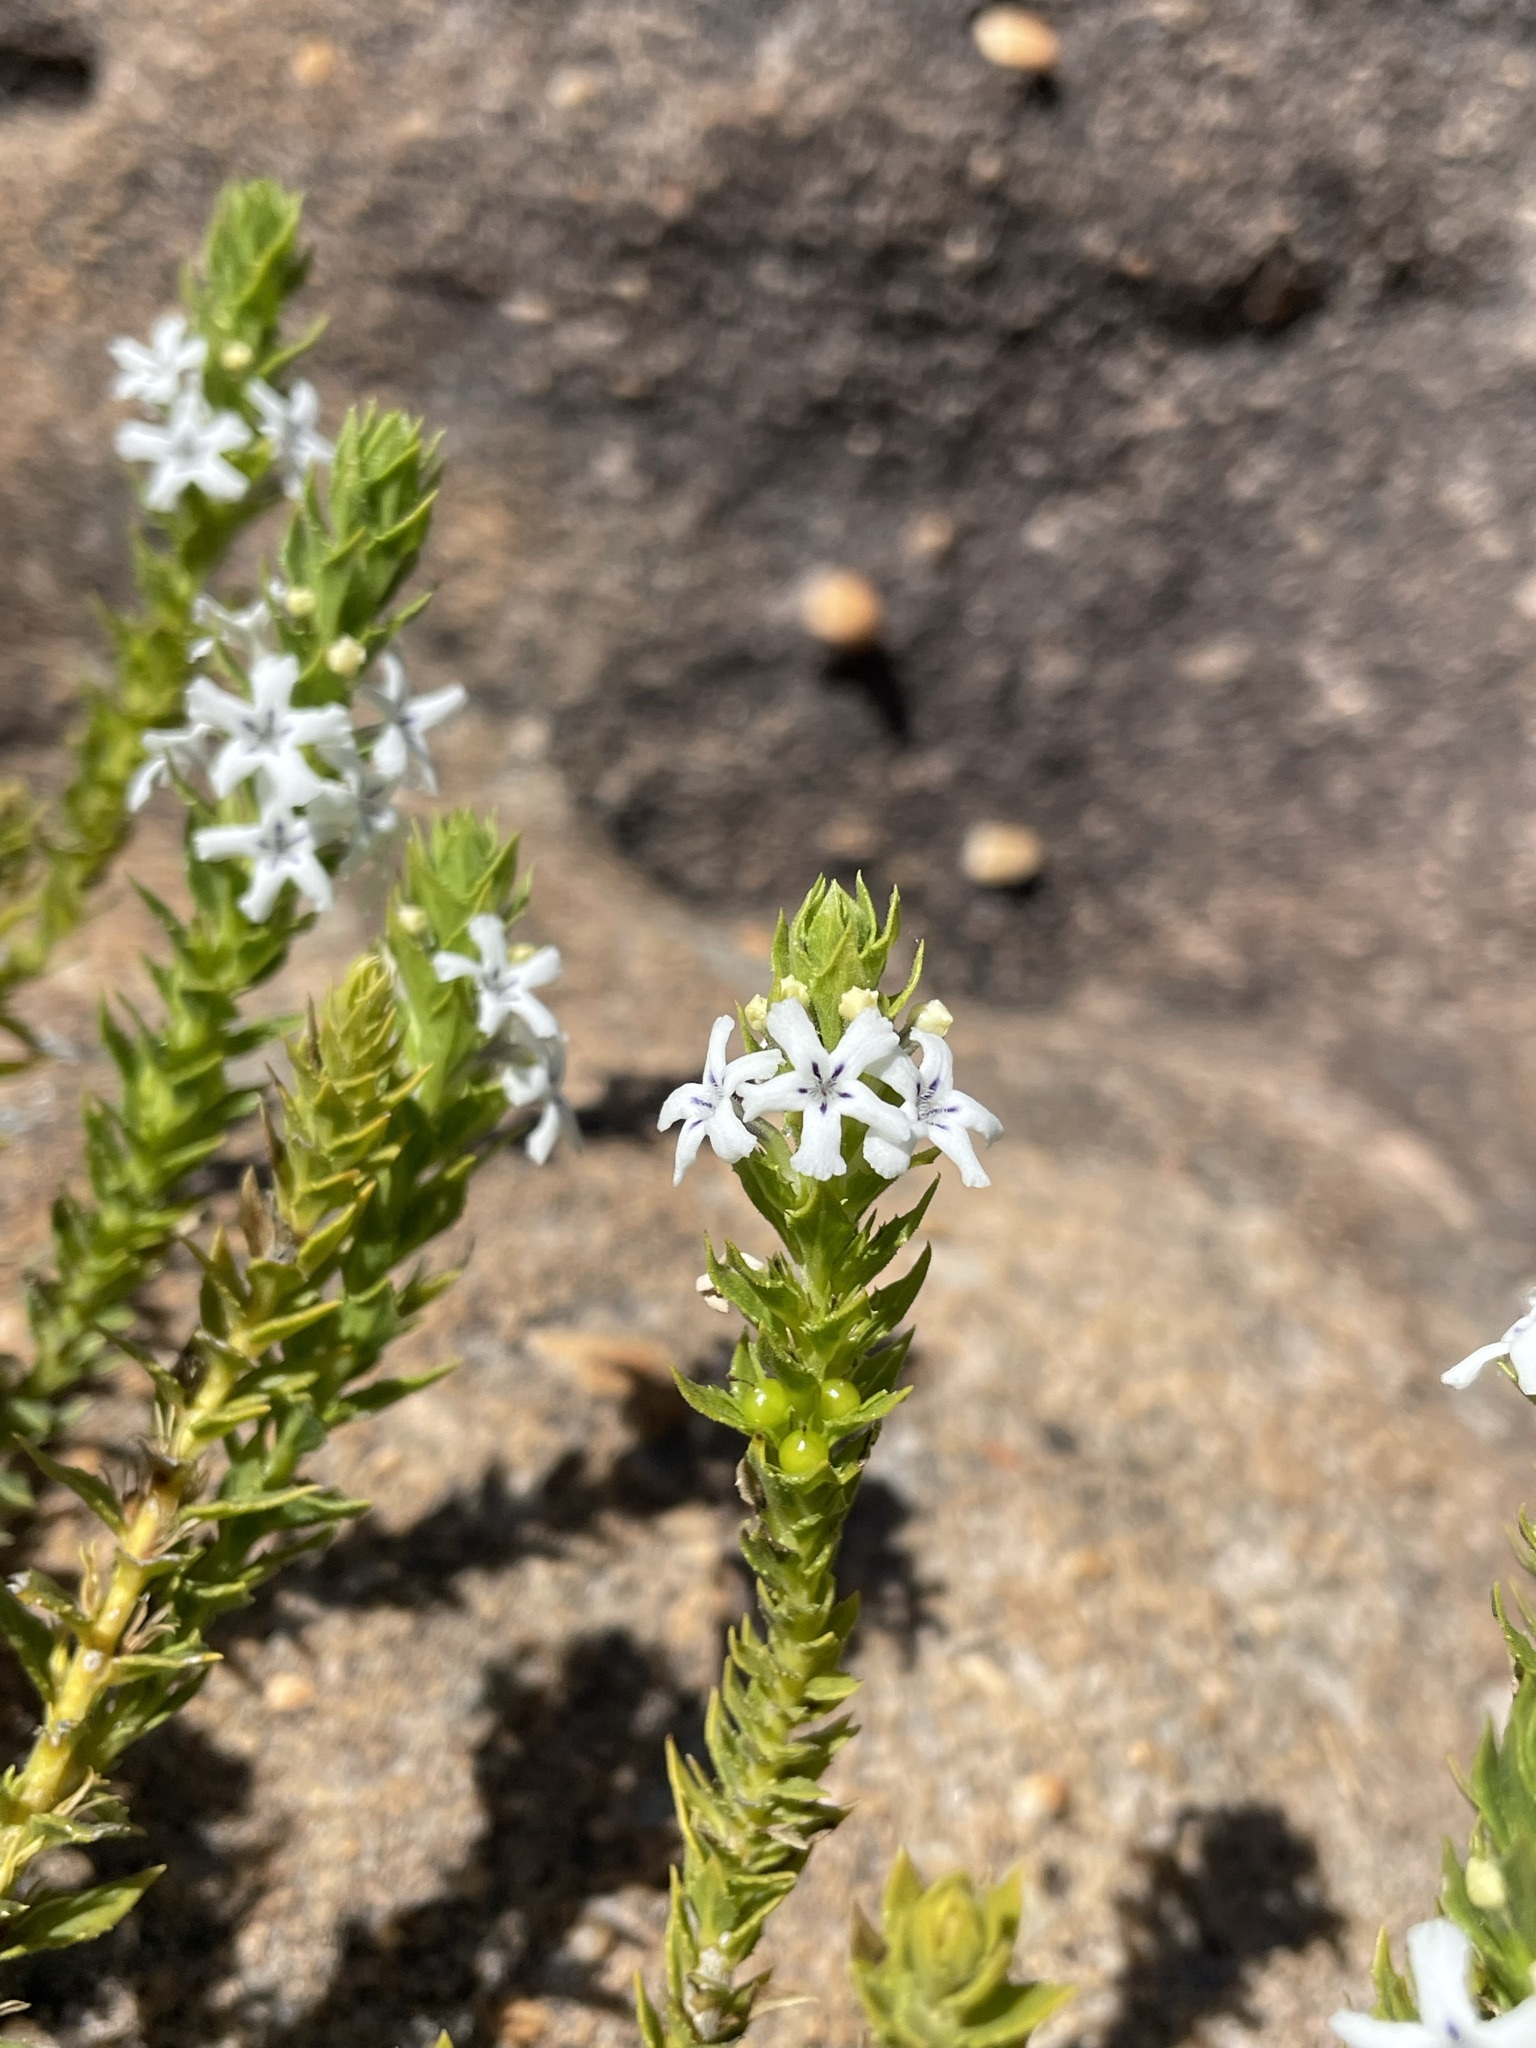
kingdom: Plantae
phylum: Tracheophyta
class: Magnoliopsida
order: Lamiales
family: Scrophulariaceae
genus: Oftia
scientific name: Oftia africana
